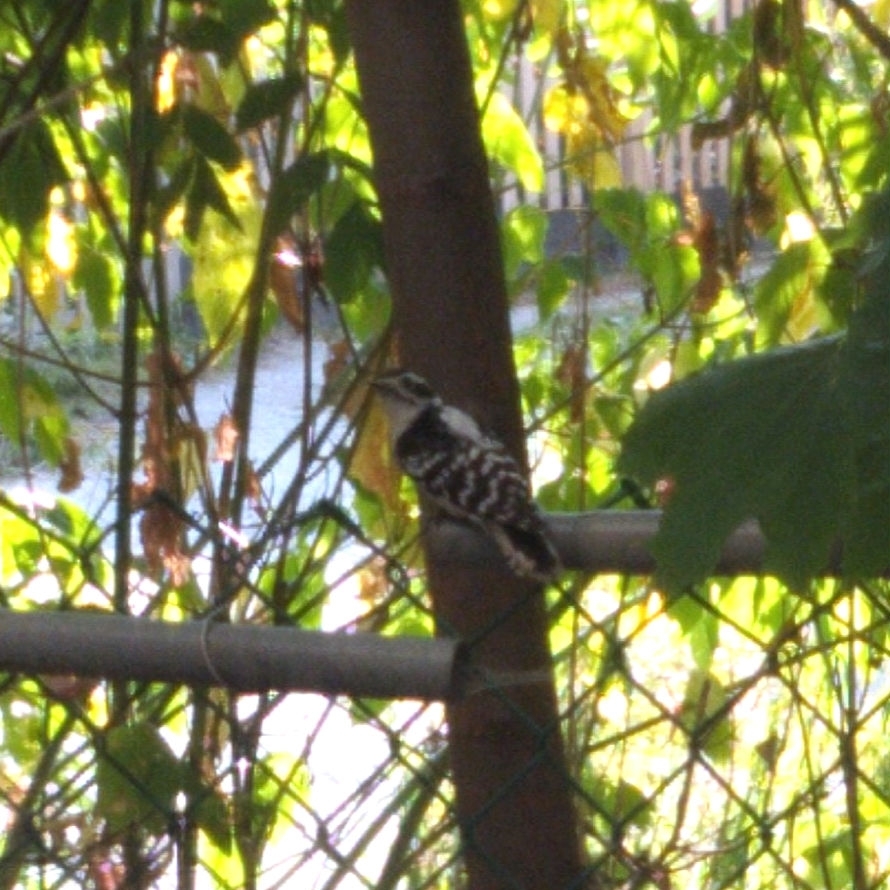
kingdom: Animalia
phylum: Chordata
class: Aves
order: Piciformes
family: Picidae
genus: Dryobates
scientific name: Dryobates pubescens
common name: Downy woodpecker
